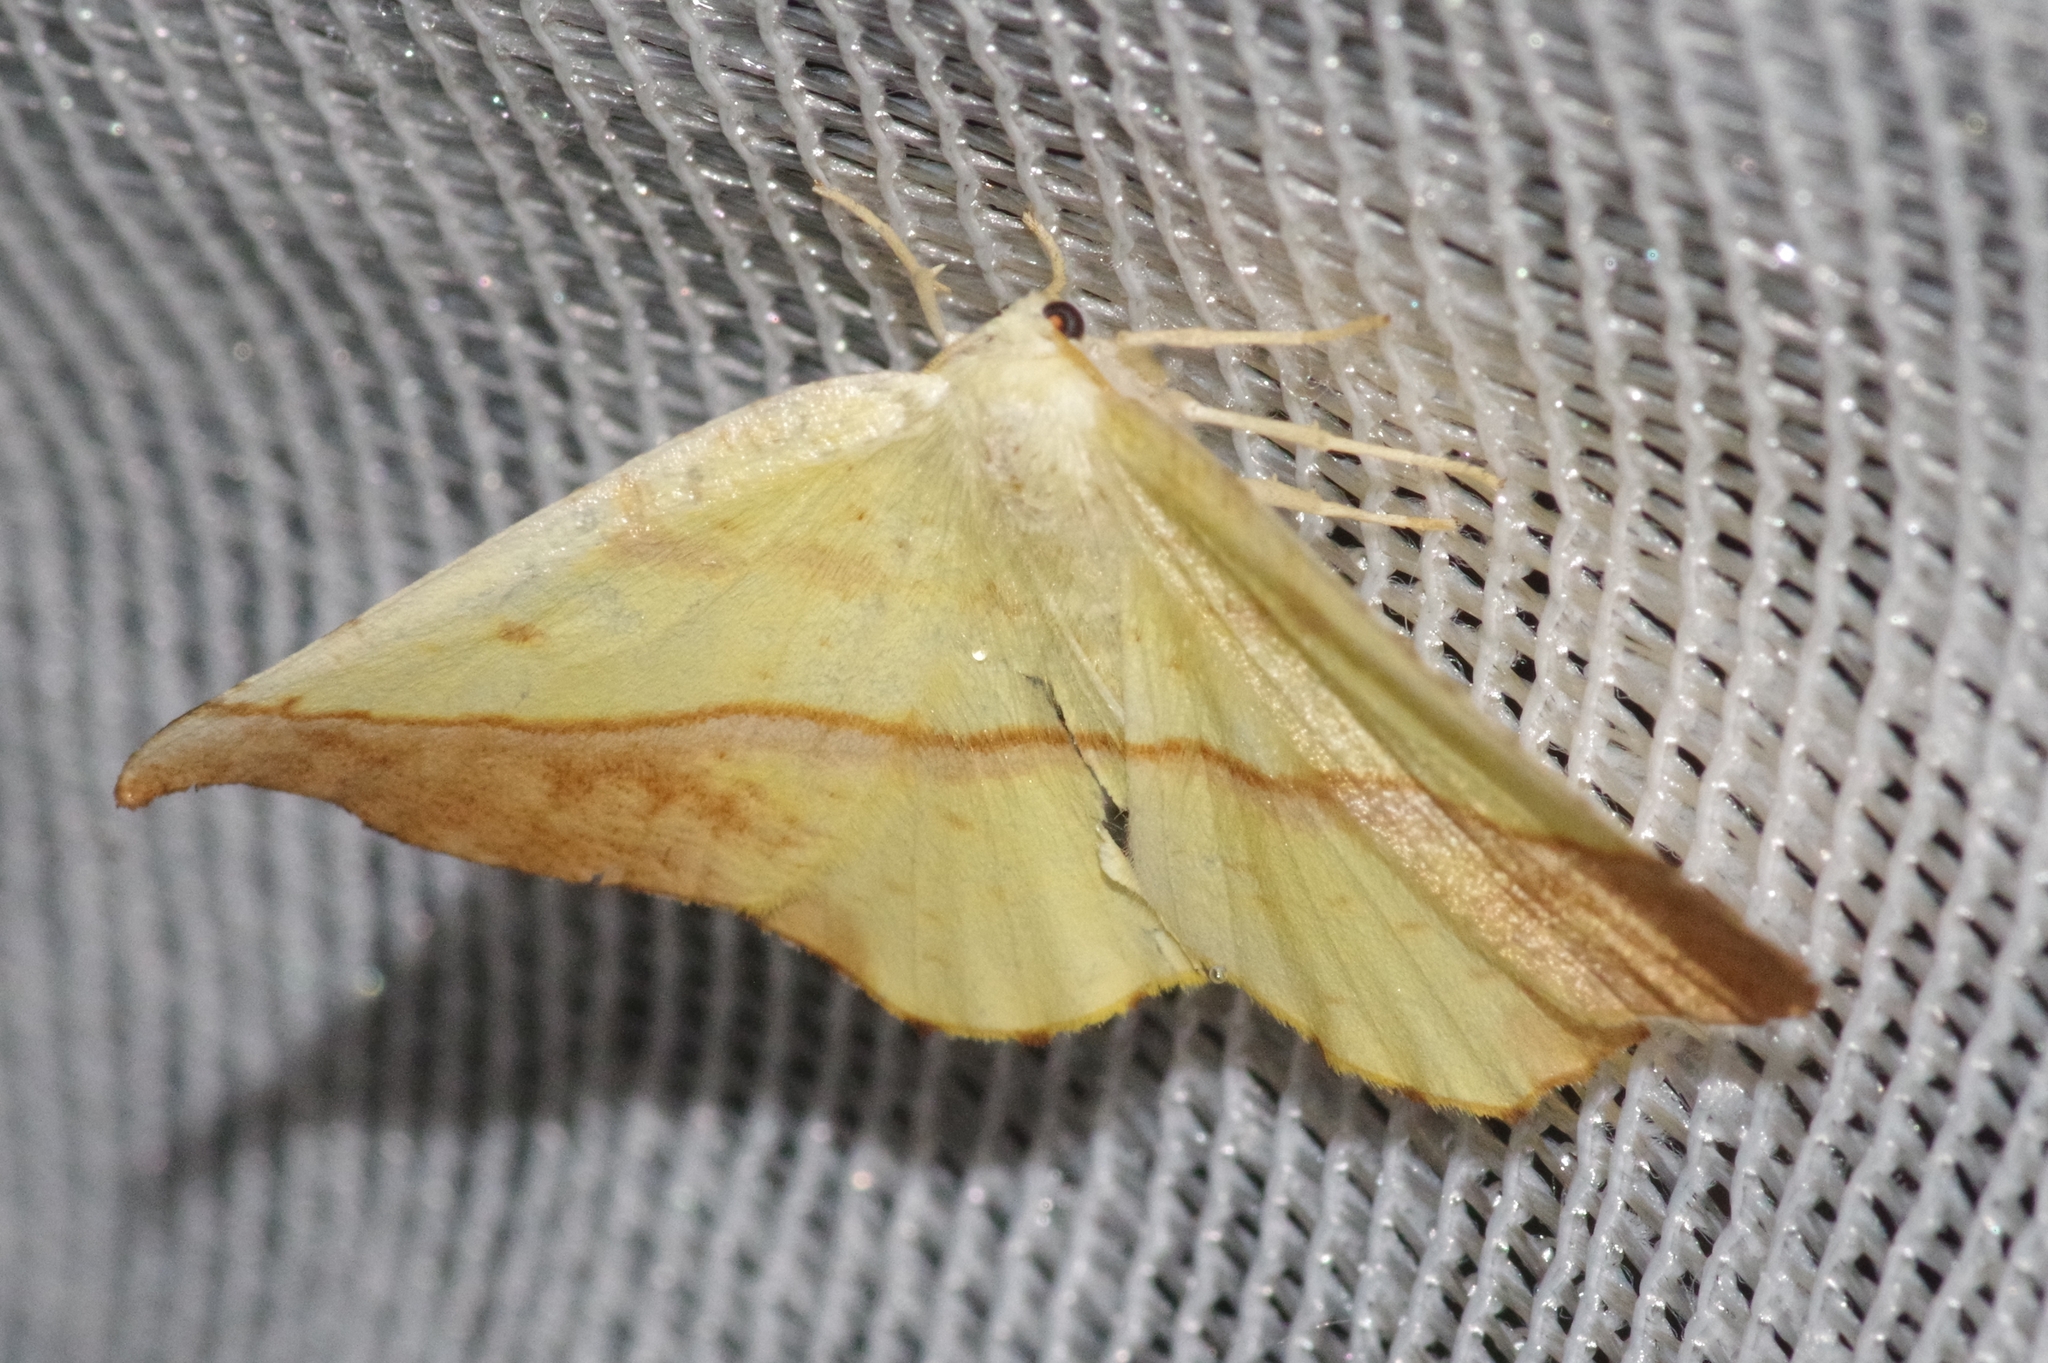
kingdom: Animalia
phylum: Arthropoda
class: Insecta
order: Lepidoptera
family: Geometridae
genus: Auaxa
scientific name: Auaxa sulphurea
